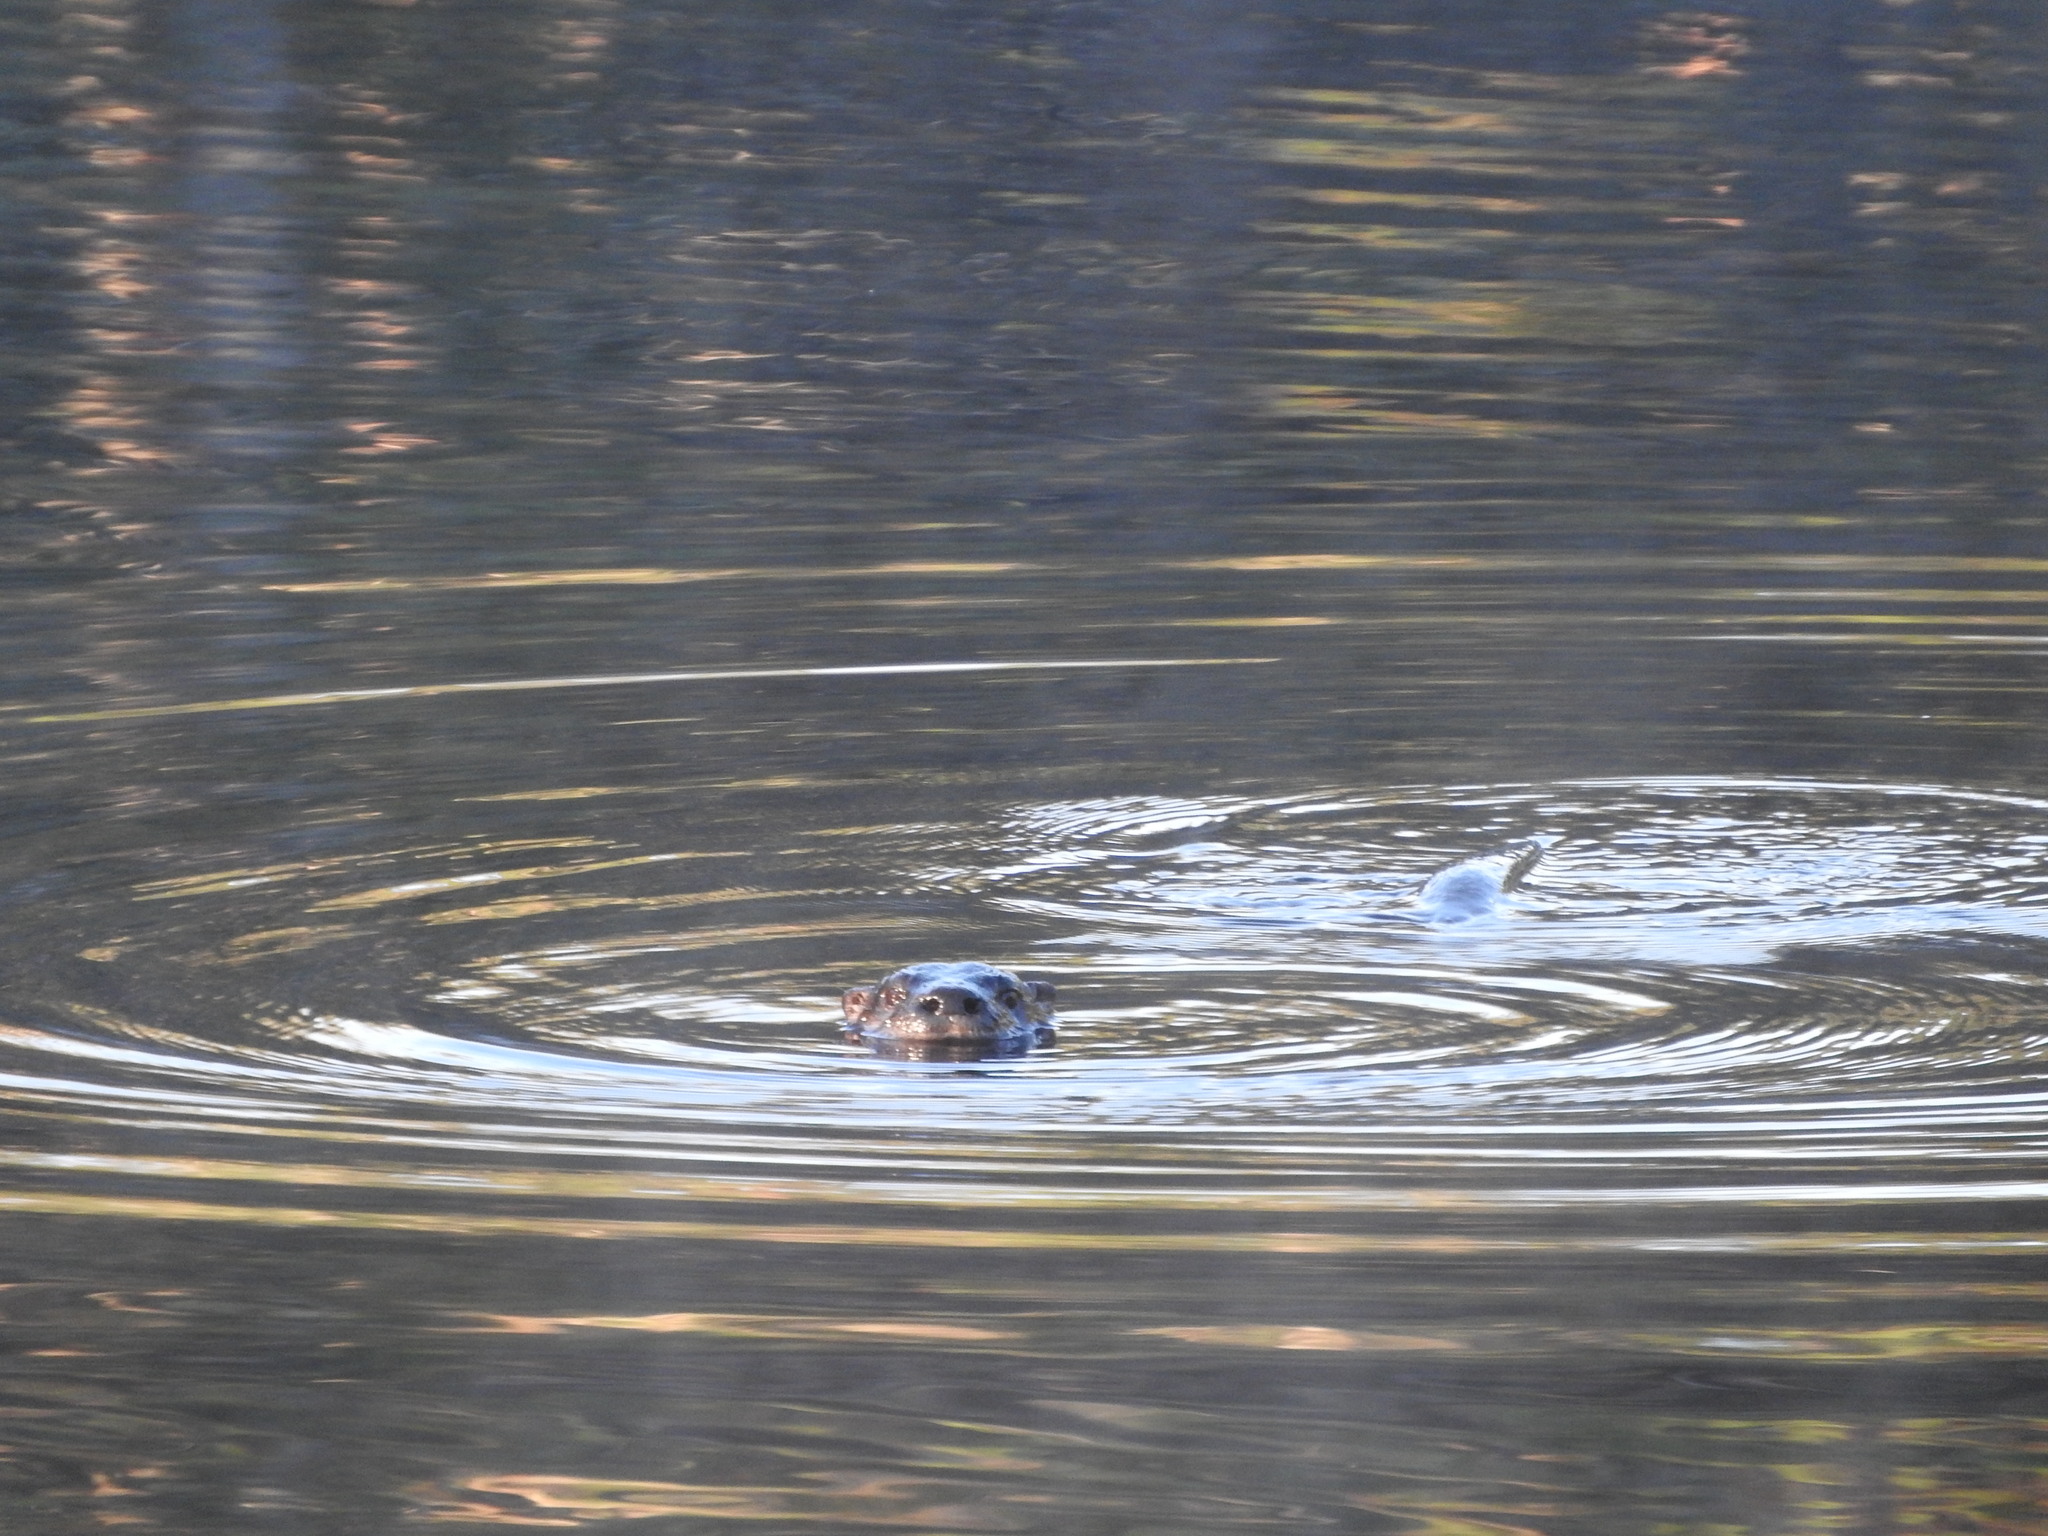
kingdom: Animalia
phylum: Chordata
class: Mammalia
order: Carnivora
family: Mustelidae
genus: Lontra
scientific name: Lontra canadensis
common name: North american river otter
